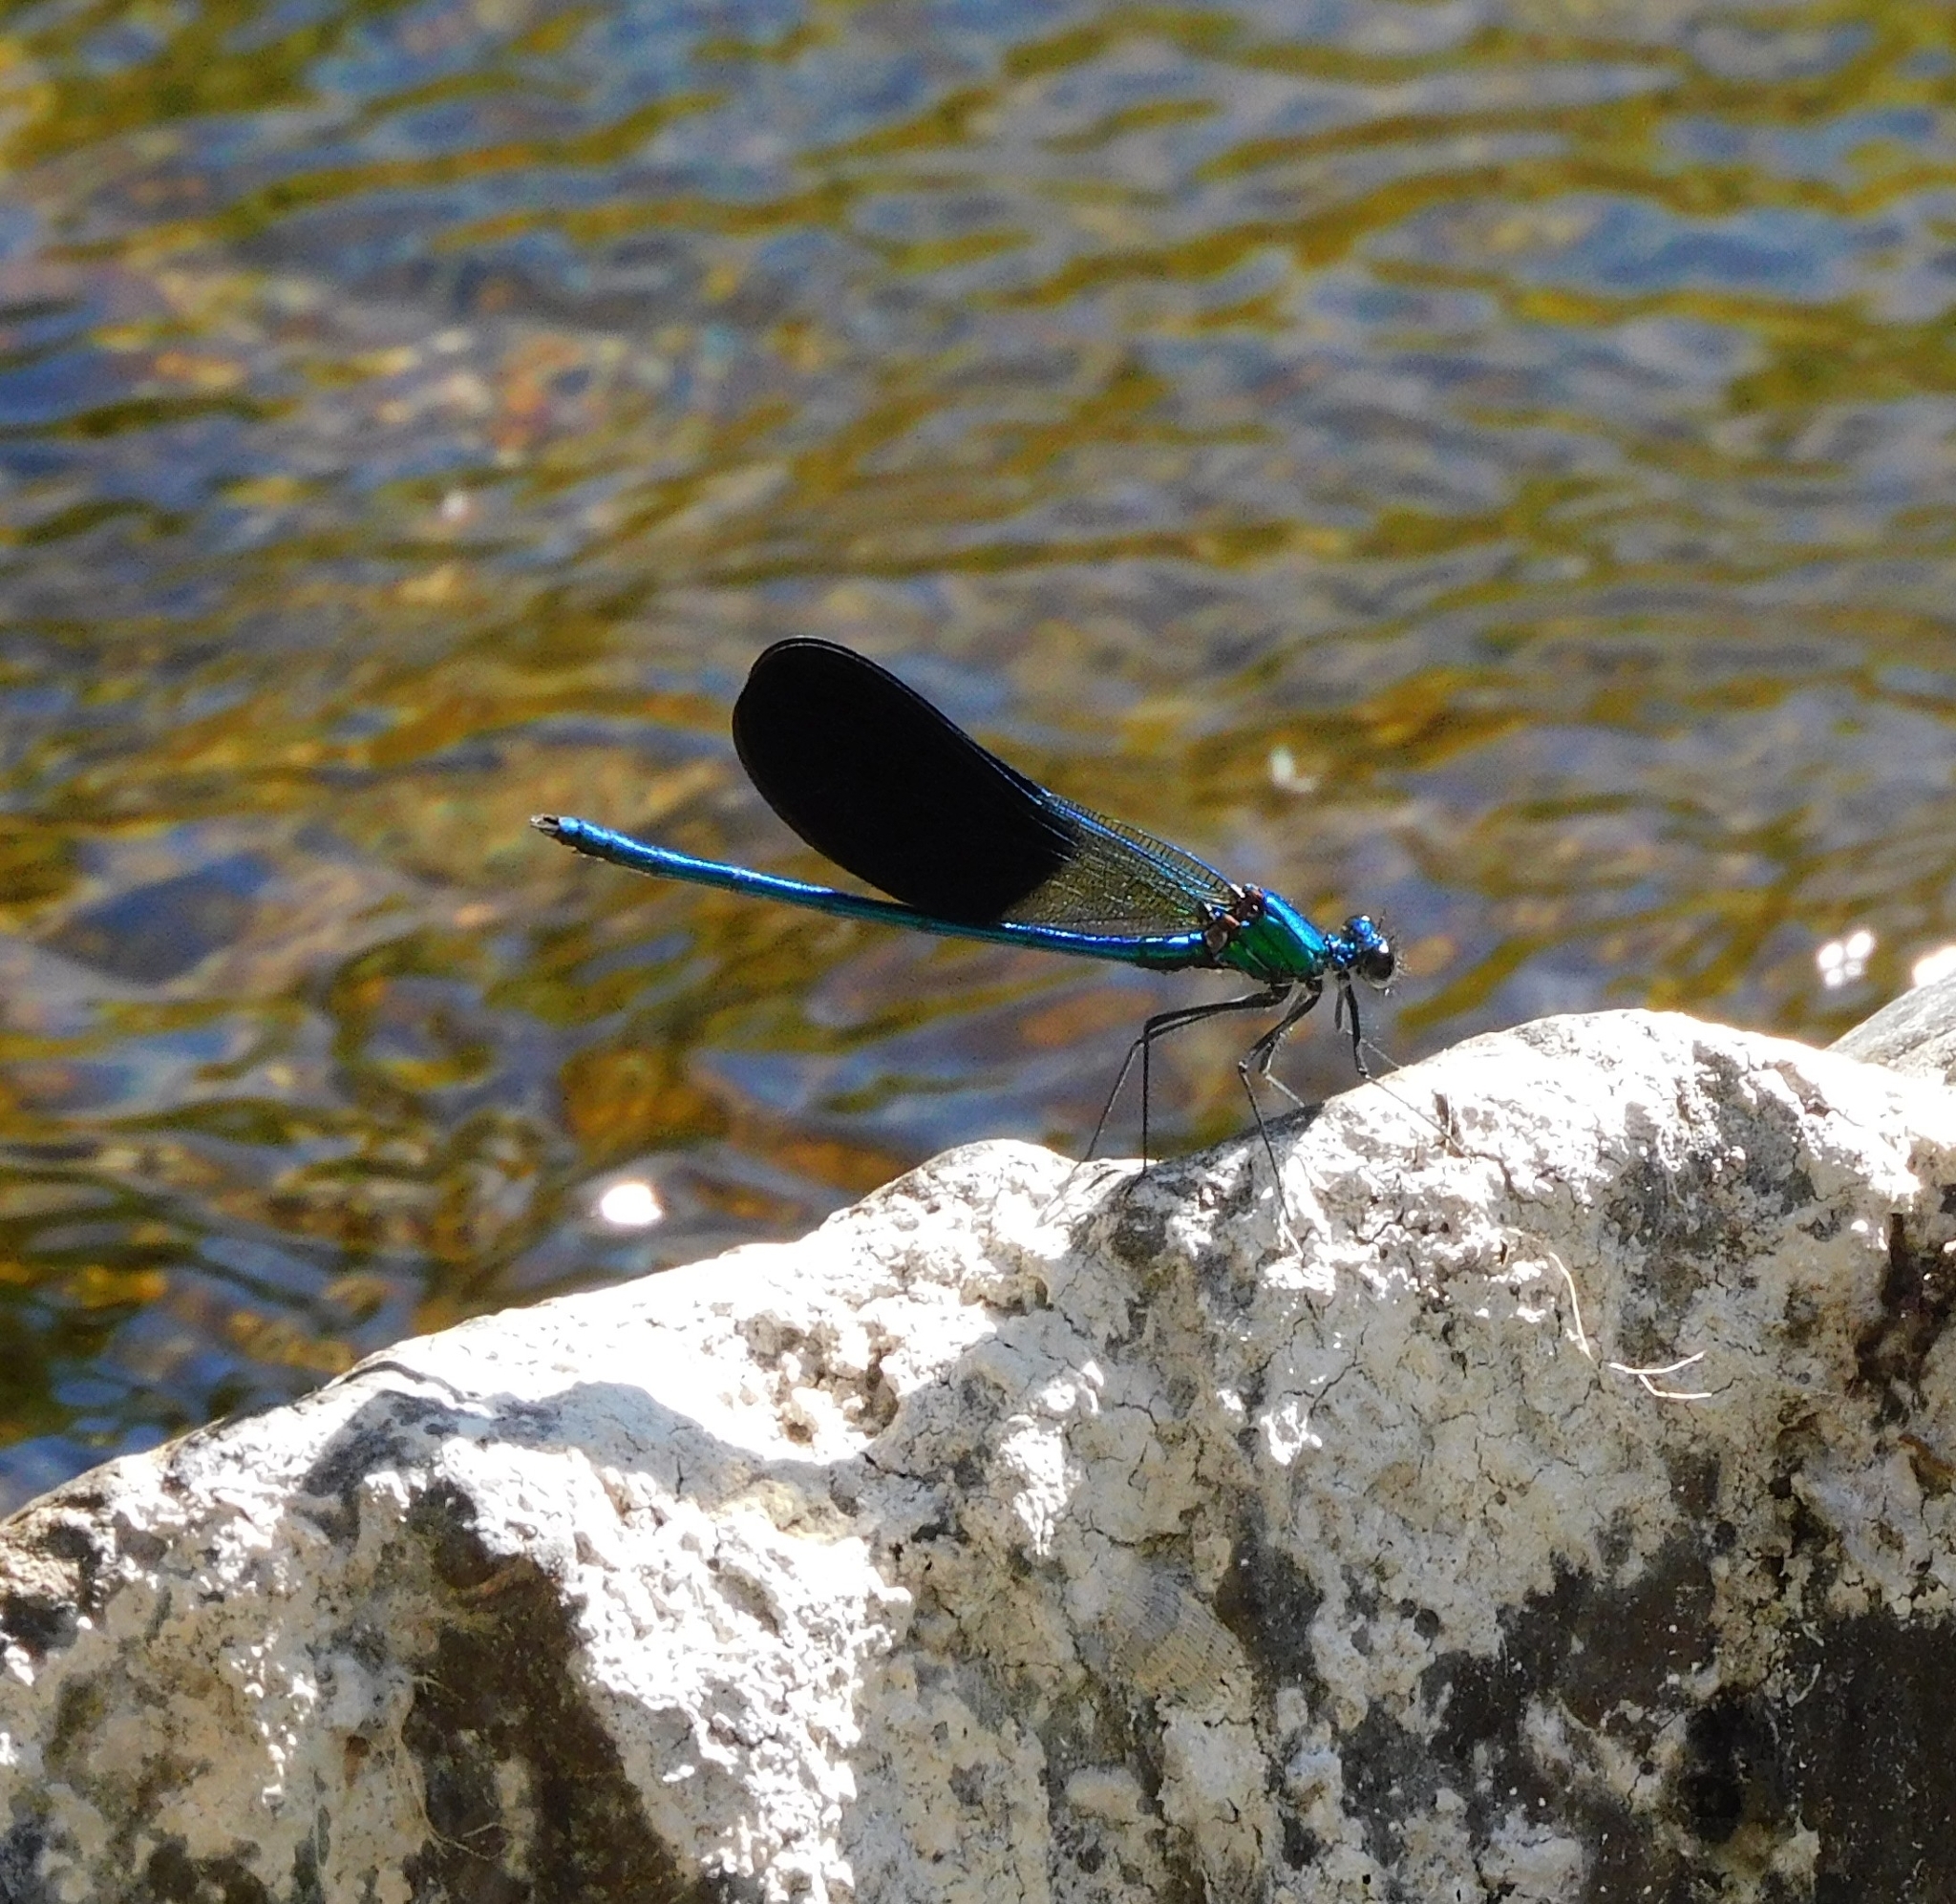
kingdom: Animalia
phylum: Arthropoda
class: Insecta
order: Odonata
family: Calopterygidae
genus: Calopteryx
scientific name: Calopteryx xanthostoma
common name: Western demoiselle
